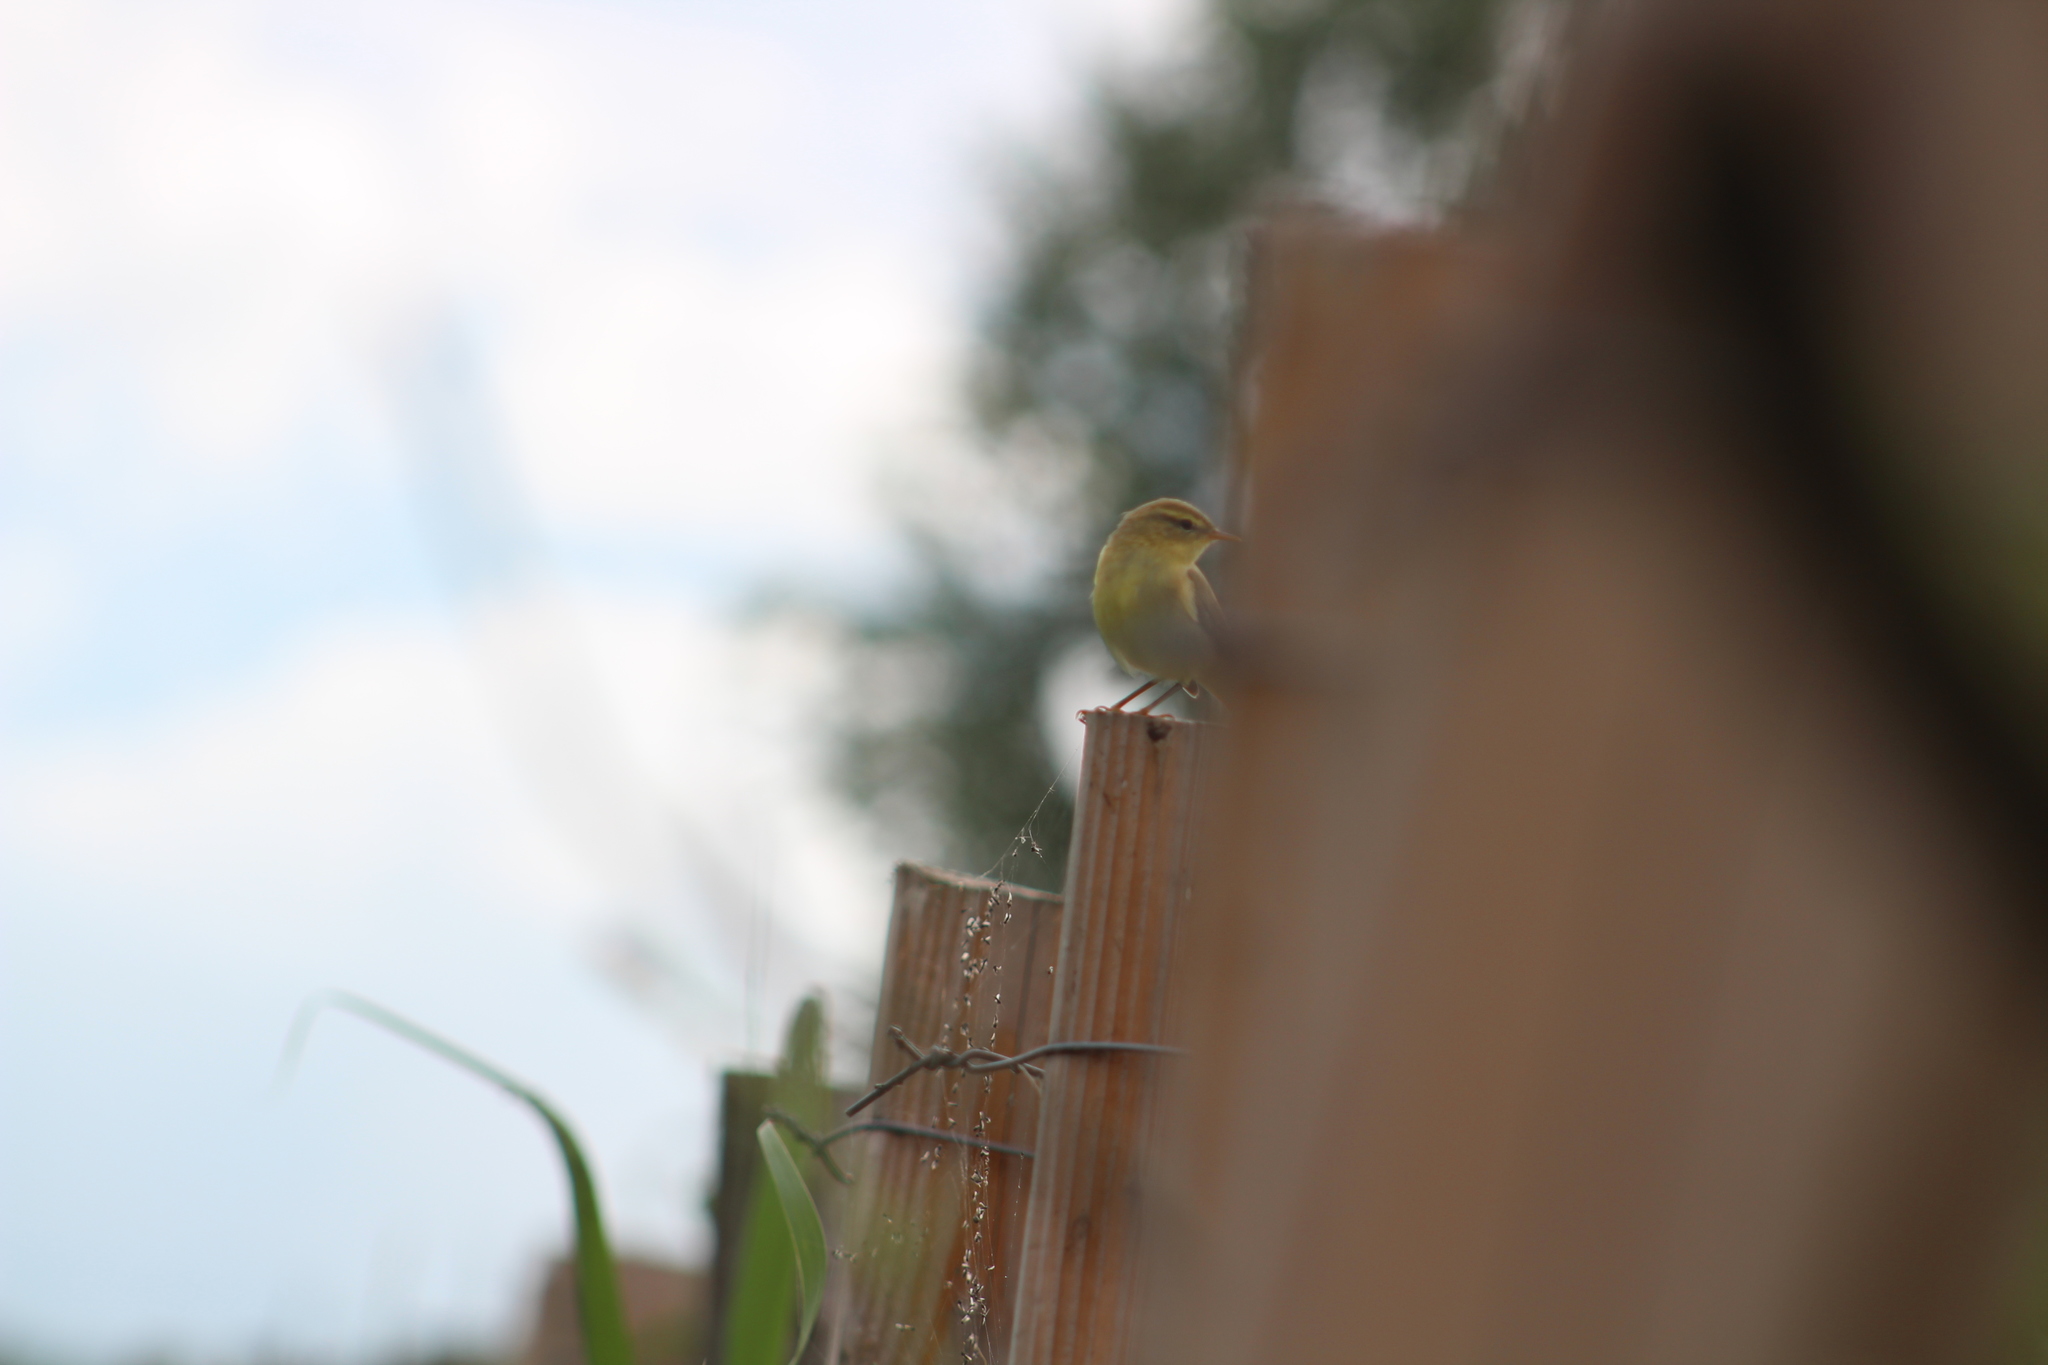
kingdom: Animalia
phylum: Chordata
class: Aves
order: Passeriformes
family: Phylloscopidae
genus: Phylloscopus
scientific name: Phylloscopus trochilus
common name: Willow warbler
